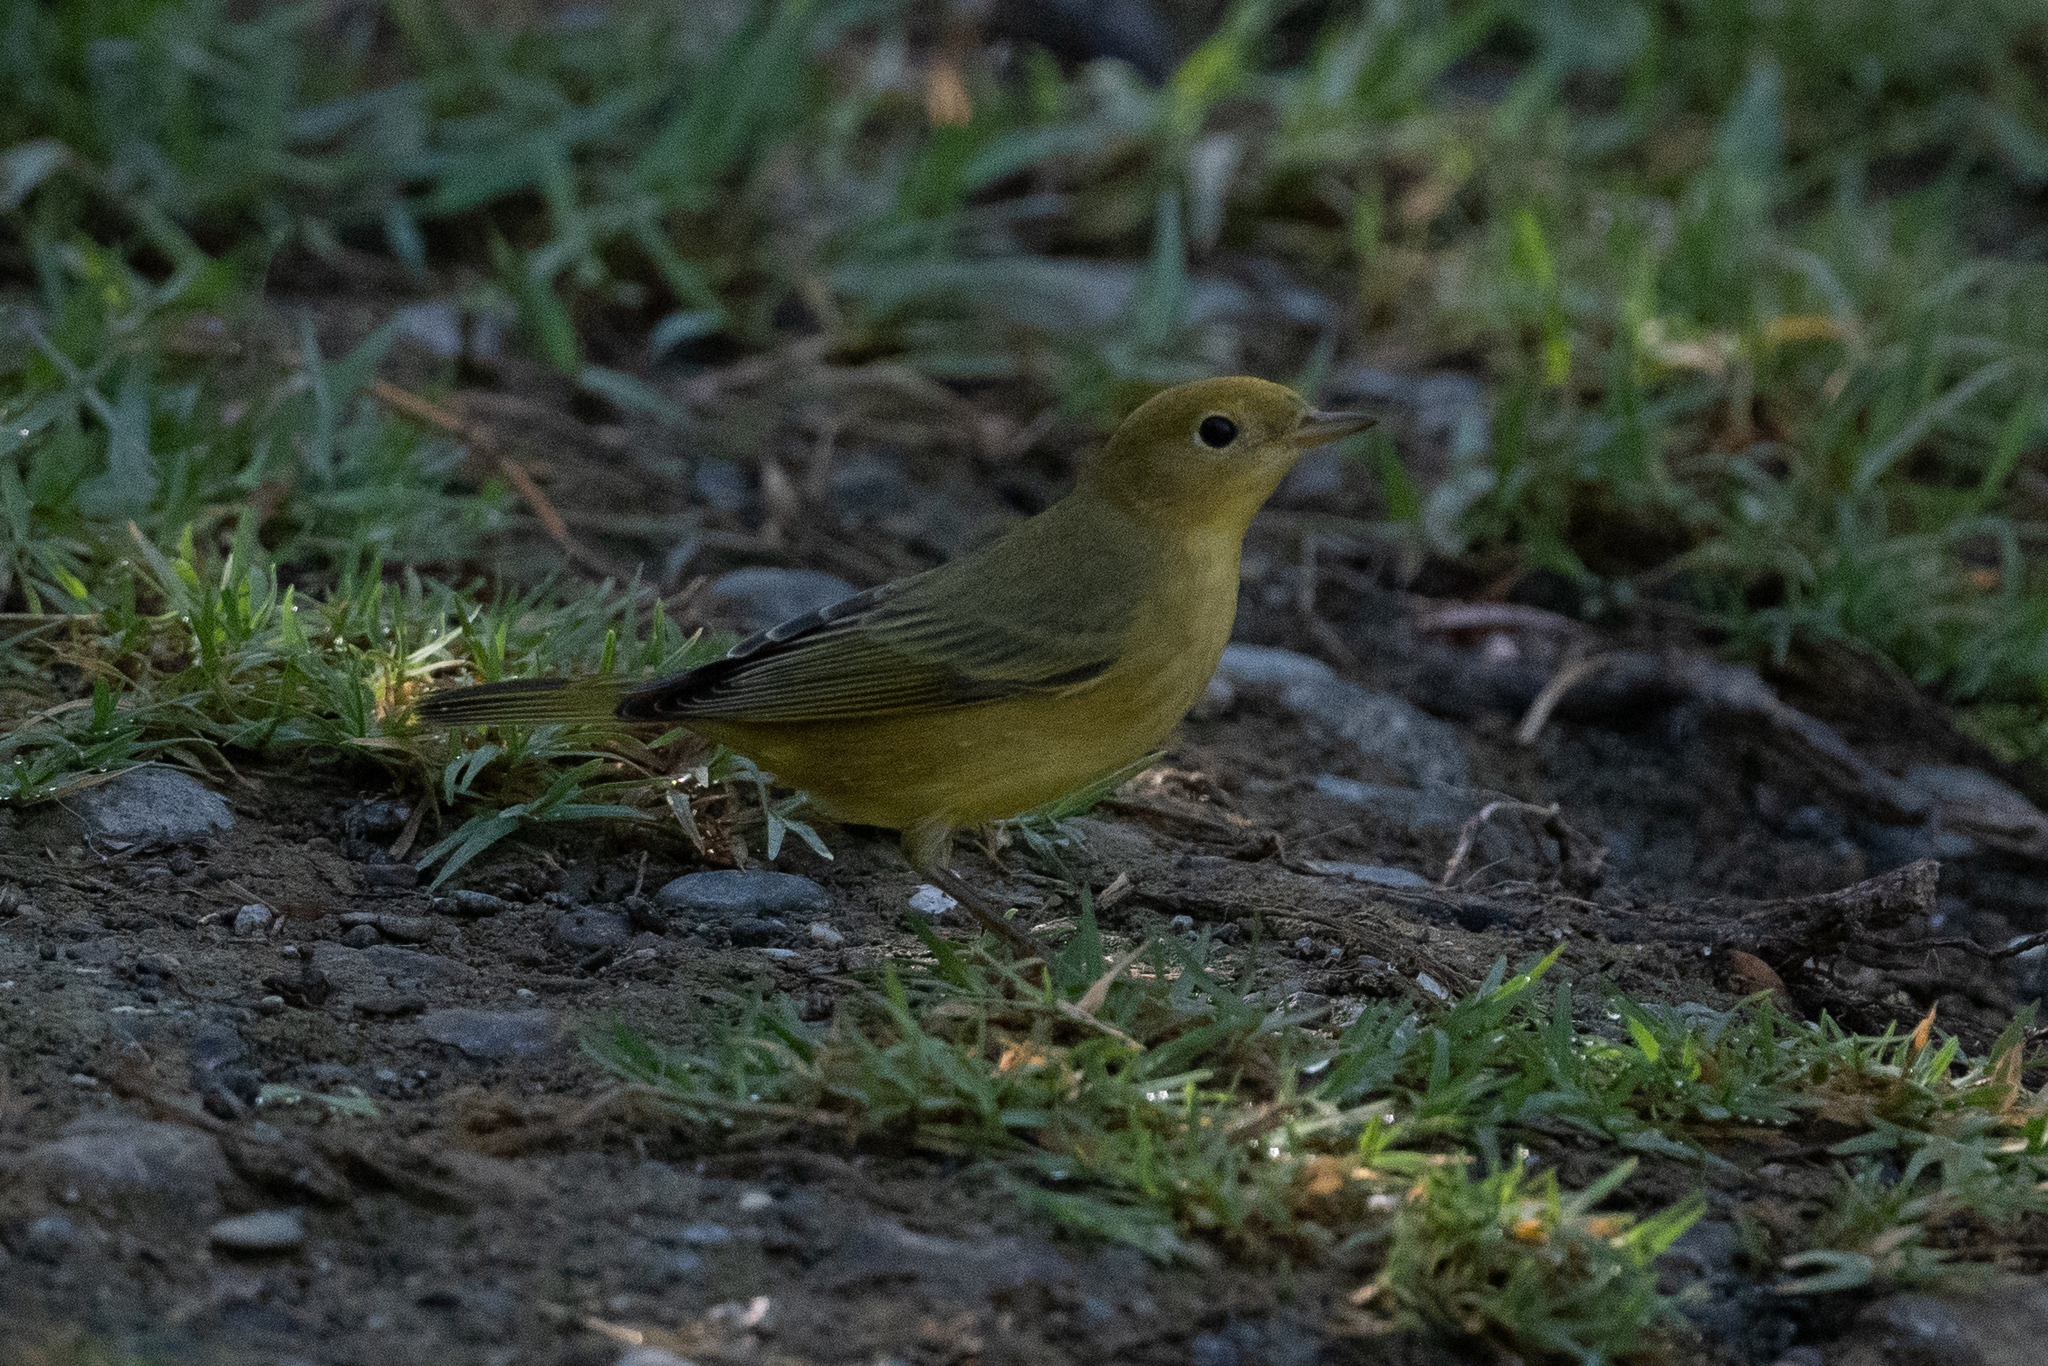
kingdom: Animalia
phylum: Chordata
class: Aves
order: Passeriformes
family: Parulidae
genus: Setophaga
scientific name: Setophaga petechia
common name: Yellow warbler
